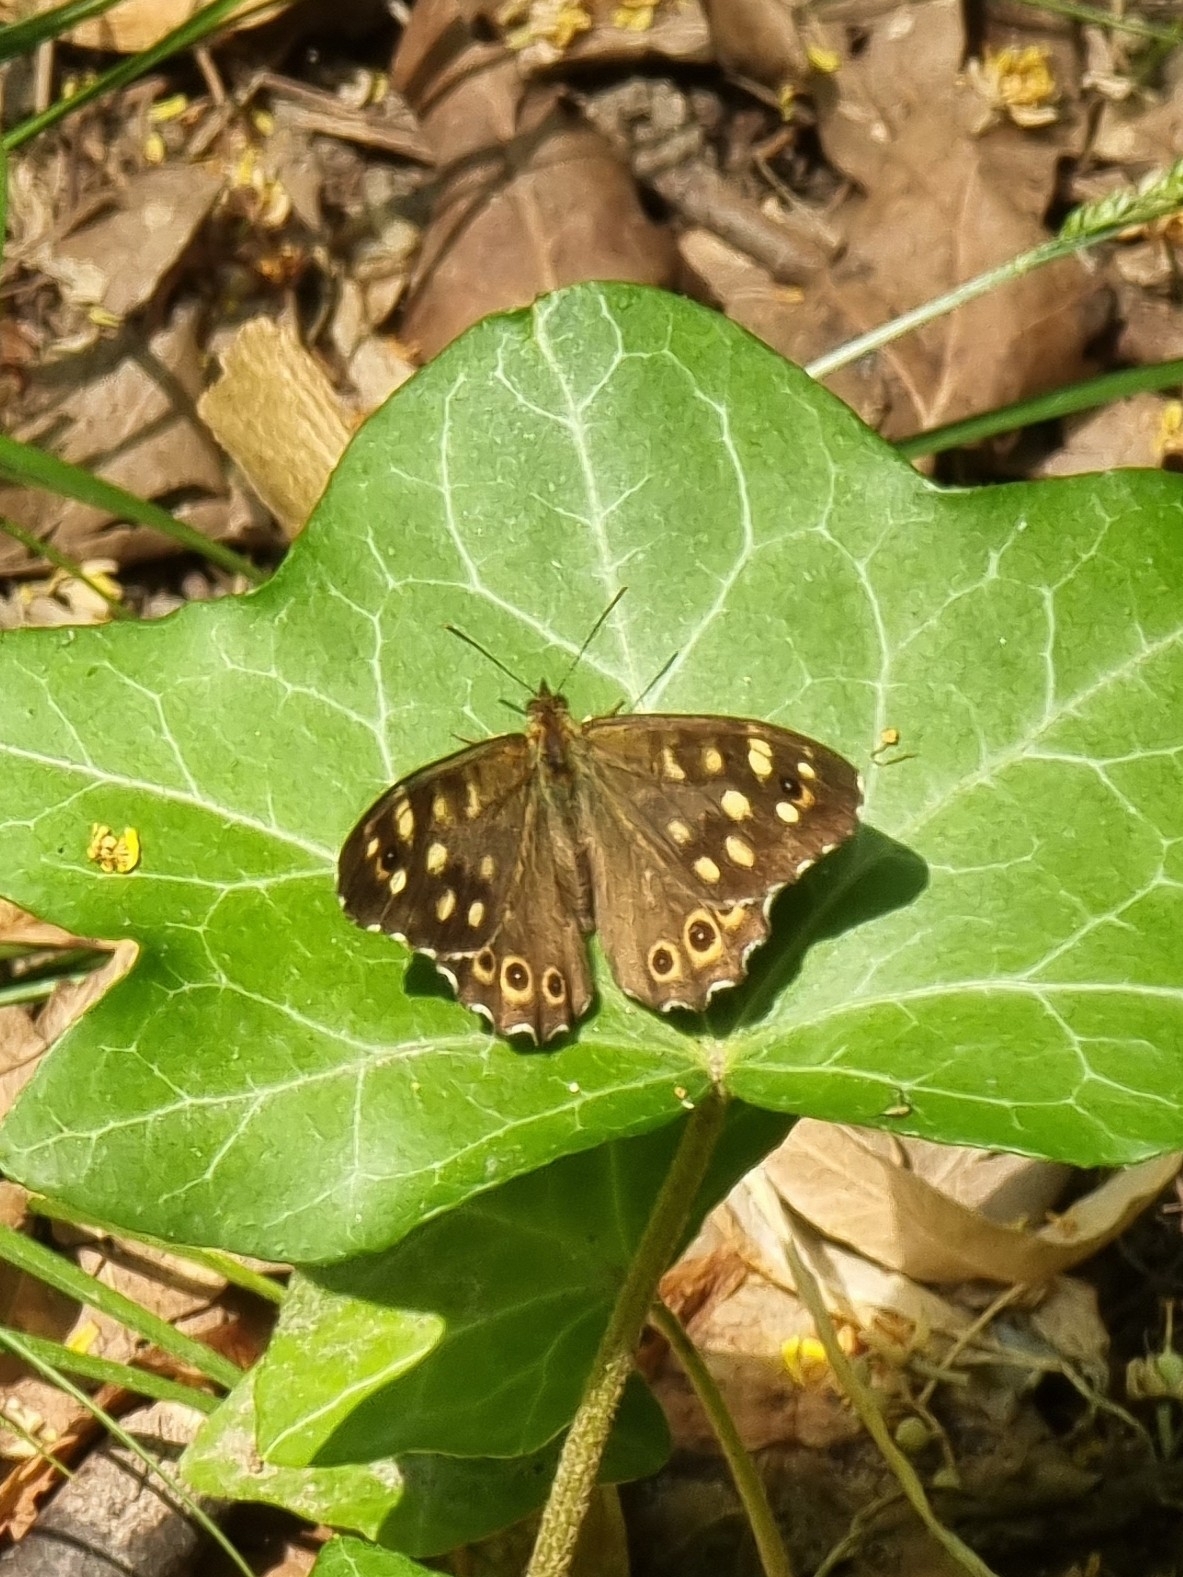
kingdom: Animalia
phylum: Arthropoda
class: Insecta
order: Lepidoptera
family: Nymphalidae
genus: Pararge
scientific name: Pararge aegeria
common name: Speckled wood
